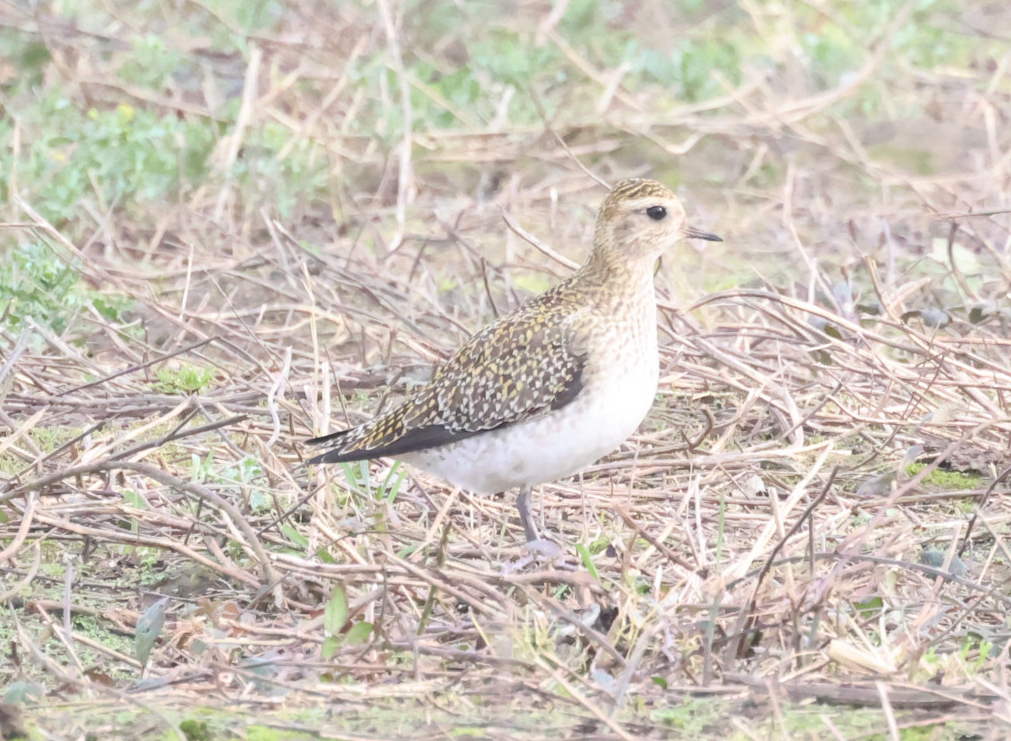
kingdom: Animalia
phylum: Chordata
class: Aves
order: Charadriiformes
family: Charadriidae
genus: Pluvialis
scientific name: Pluvialis apricaria
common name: European golden plover
